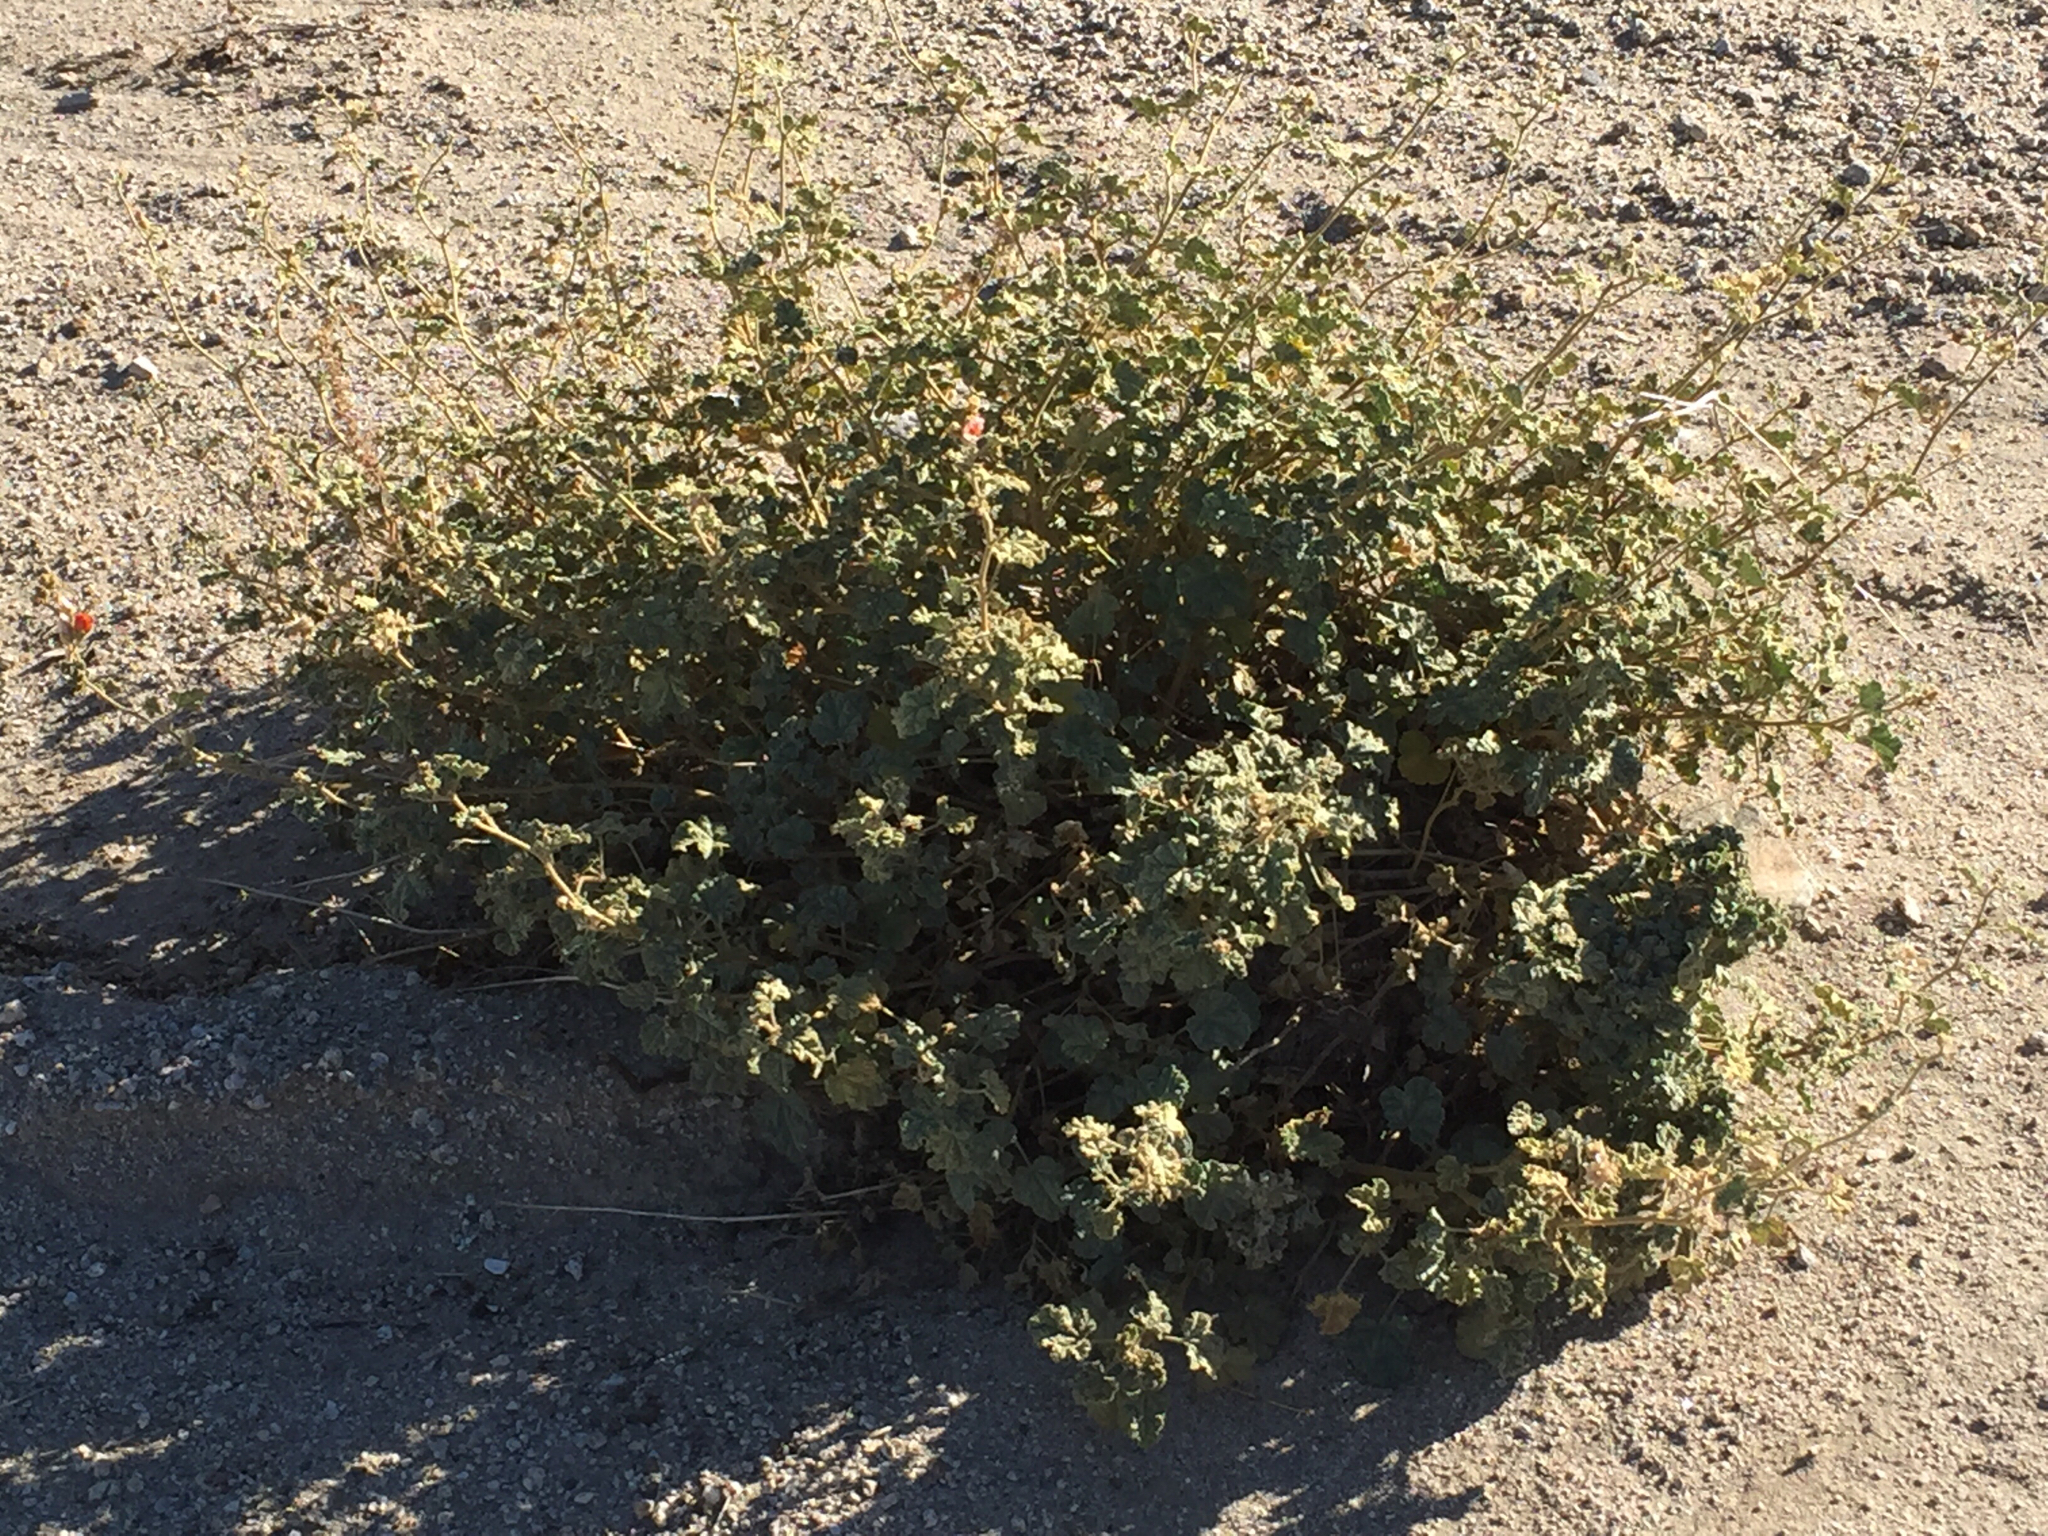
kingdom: Plantae
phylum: Tracheophyta
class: Magnoliopsida
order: Malvales
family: Malvaceae
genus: Sphaeralcea
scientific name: Sphaeralcea ambigua
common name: Apricot globe-mallow
